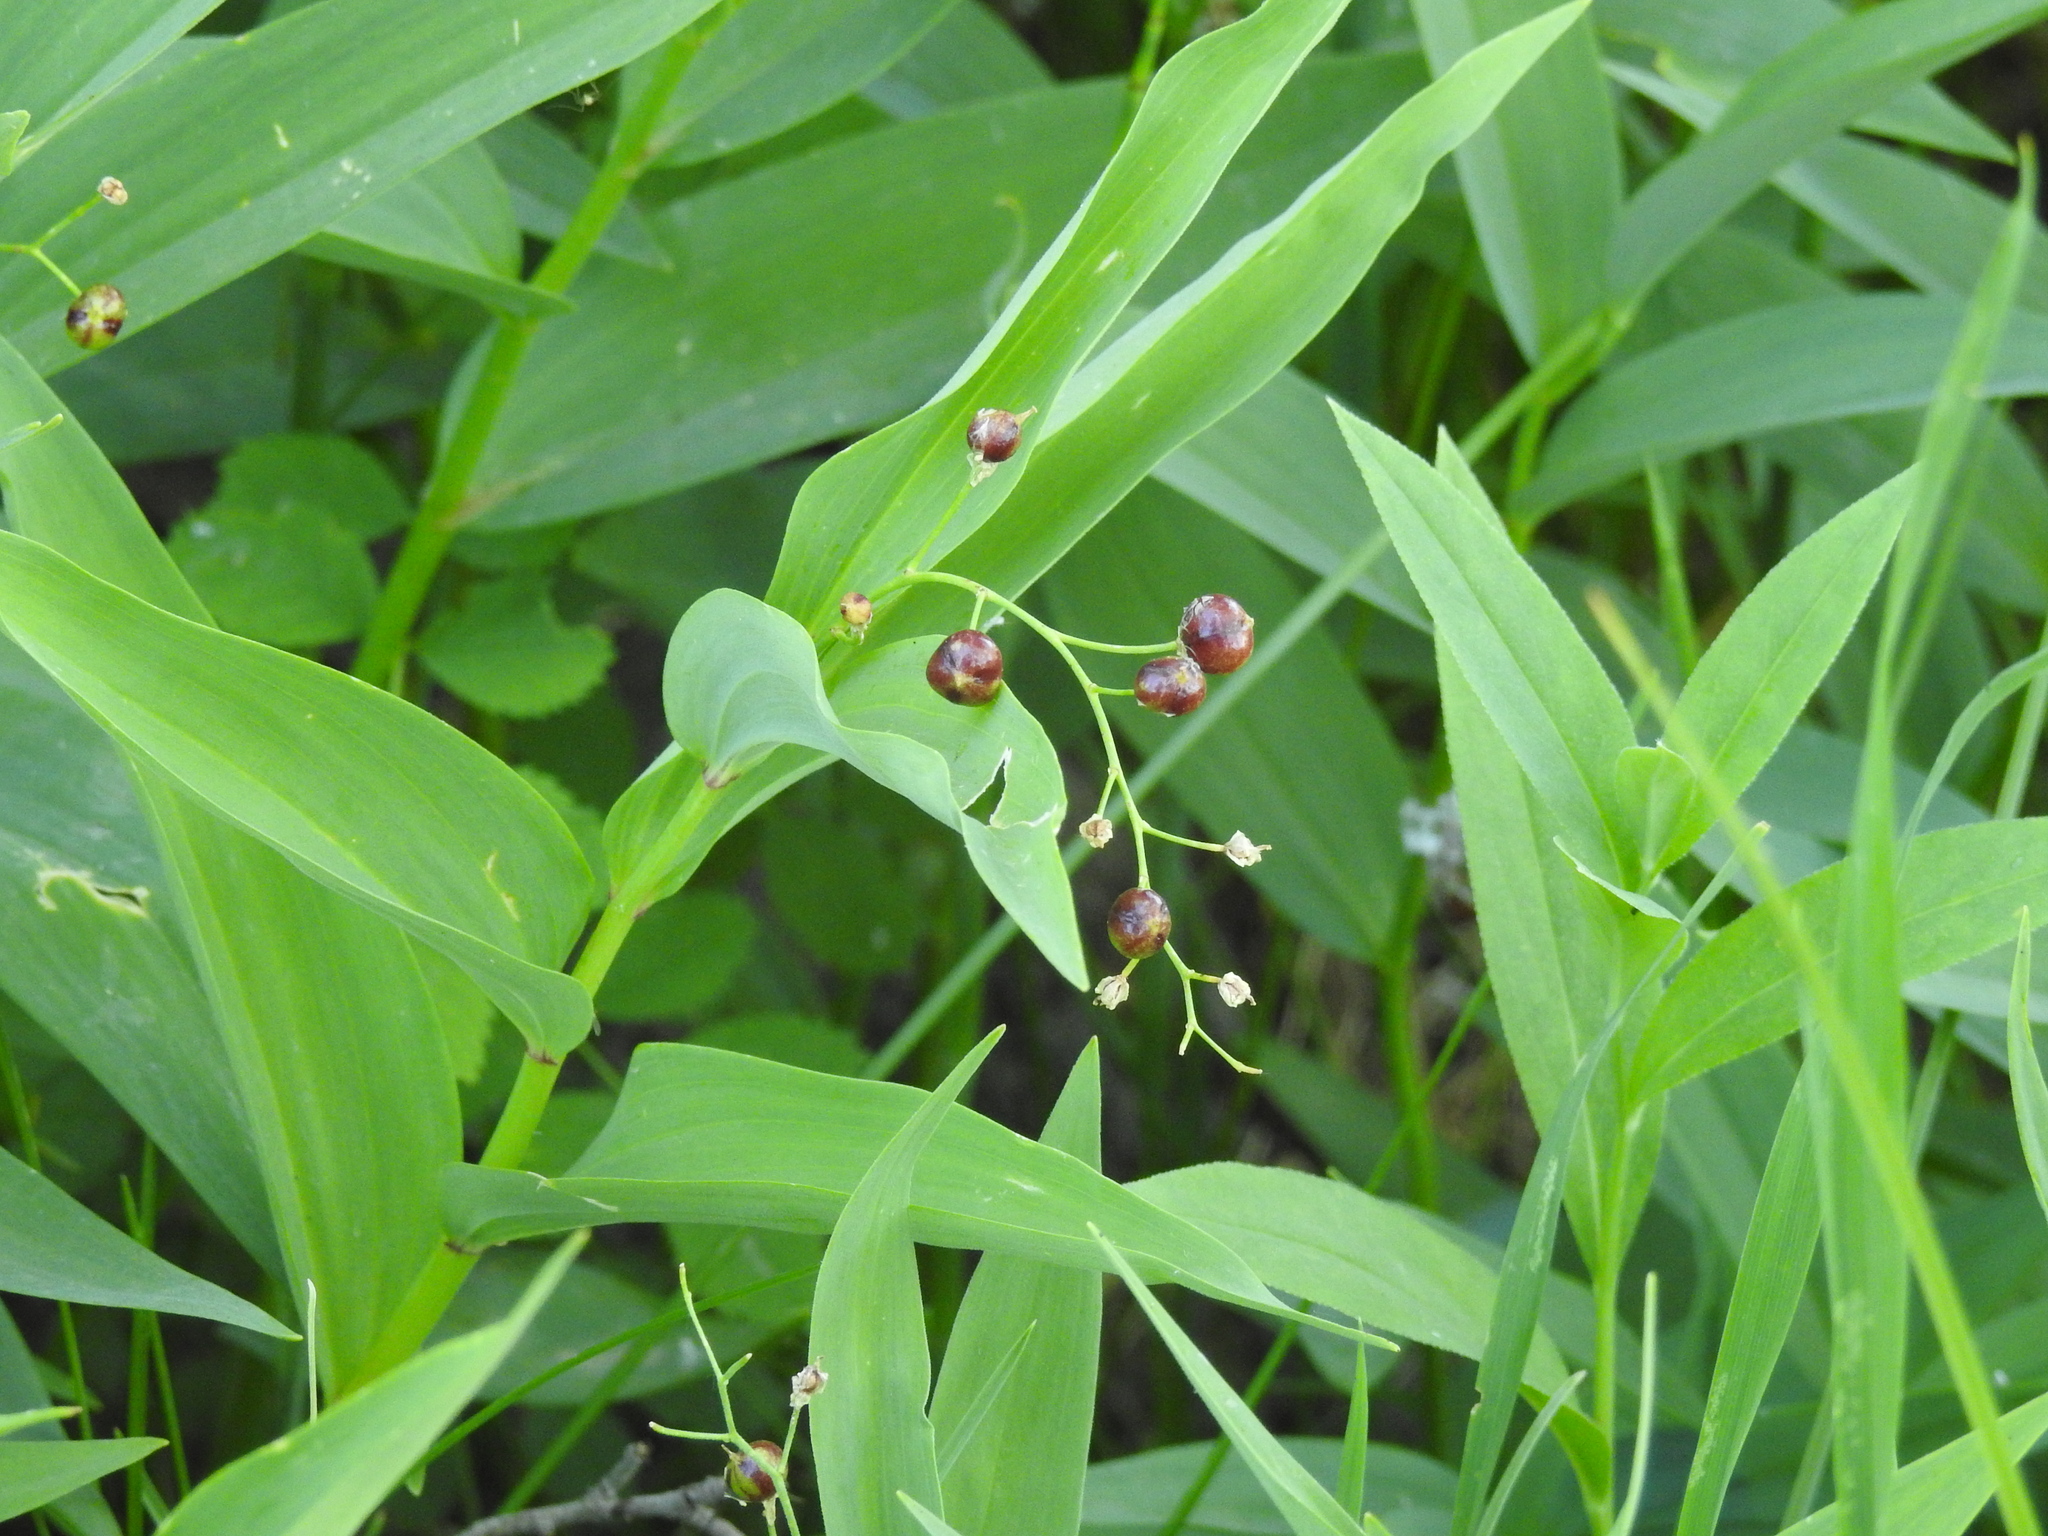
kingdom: Plantae
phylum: Tracheophyta
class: Liliopsida
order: Asparagales
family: Asparagaceae
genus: Maianthemum
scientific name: Maianthemum stellatum
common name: Little false solomon's seal
